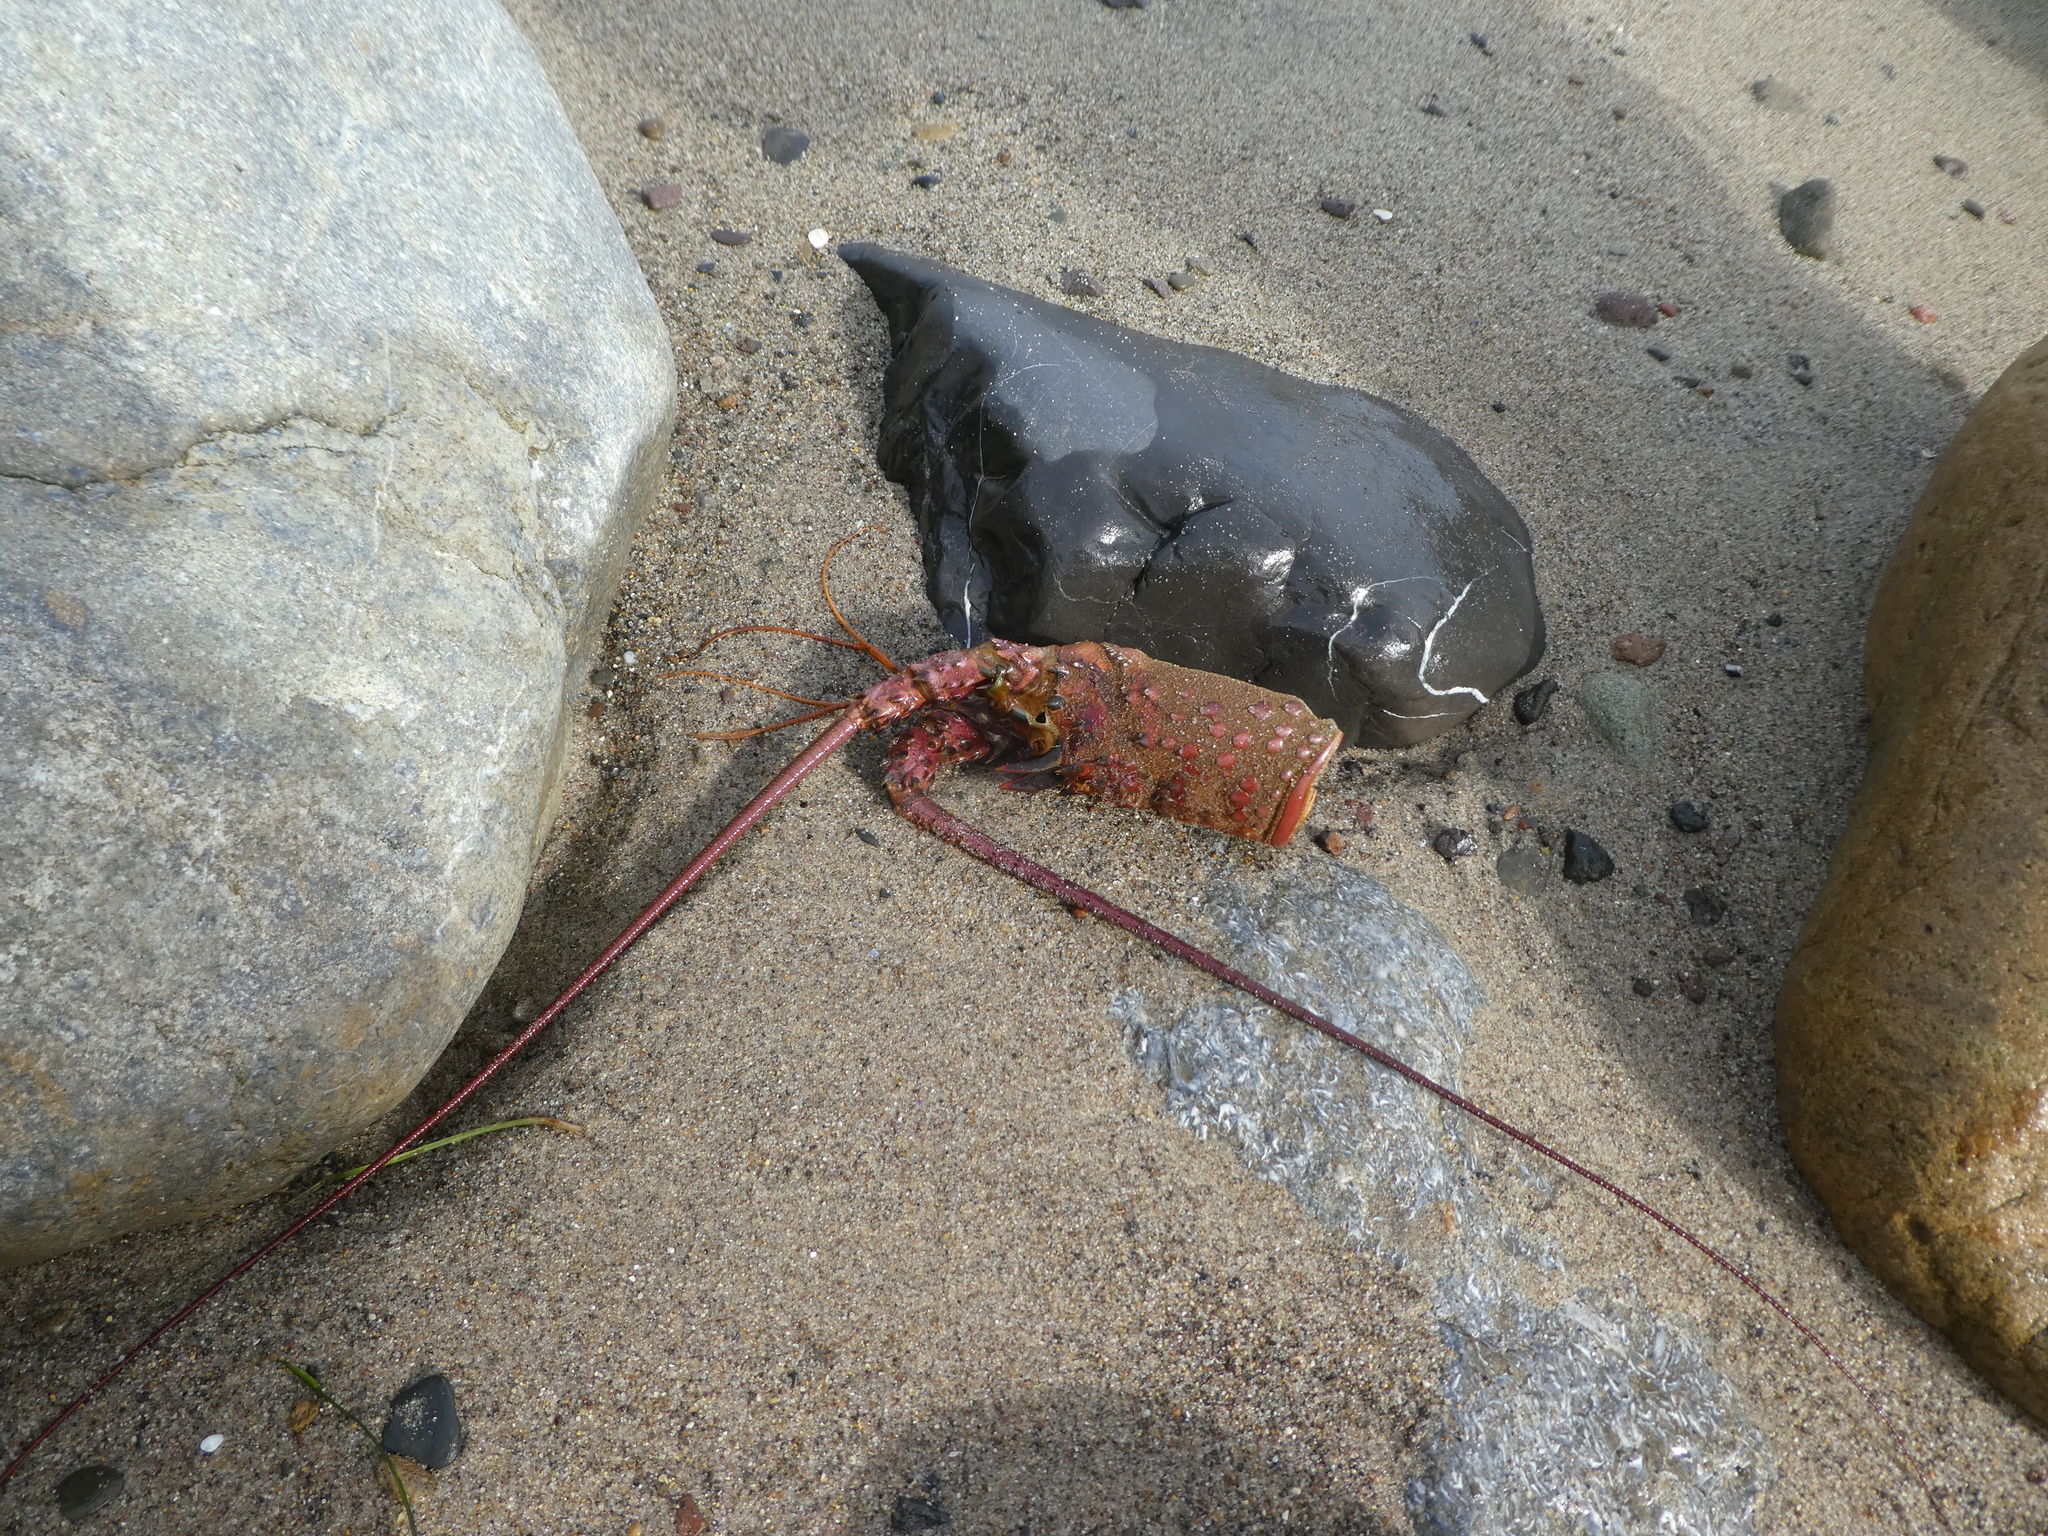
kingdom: Animalia
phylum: Arthropoda
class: Malacostraca
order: Decapoda
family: Palinuridae
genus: Panulirus
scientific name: Panulirus interruptus
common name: California spiny lobster
